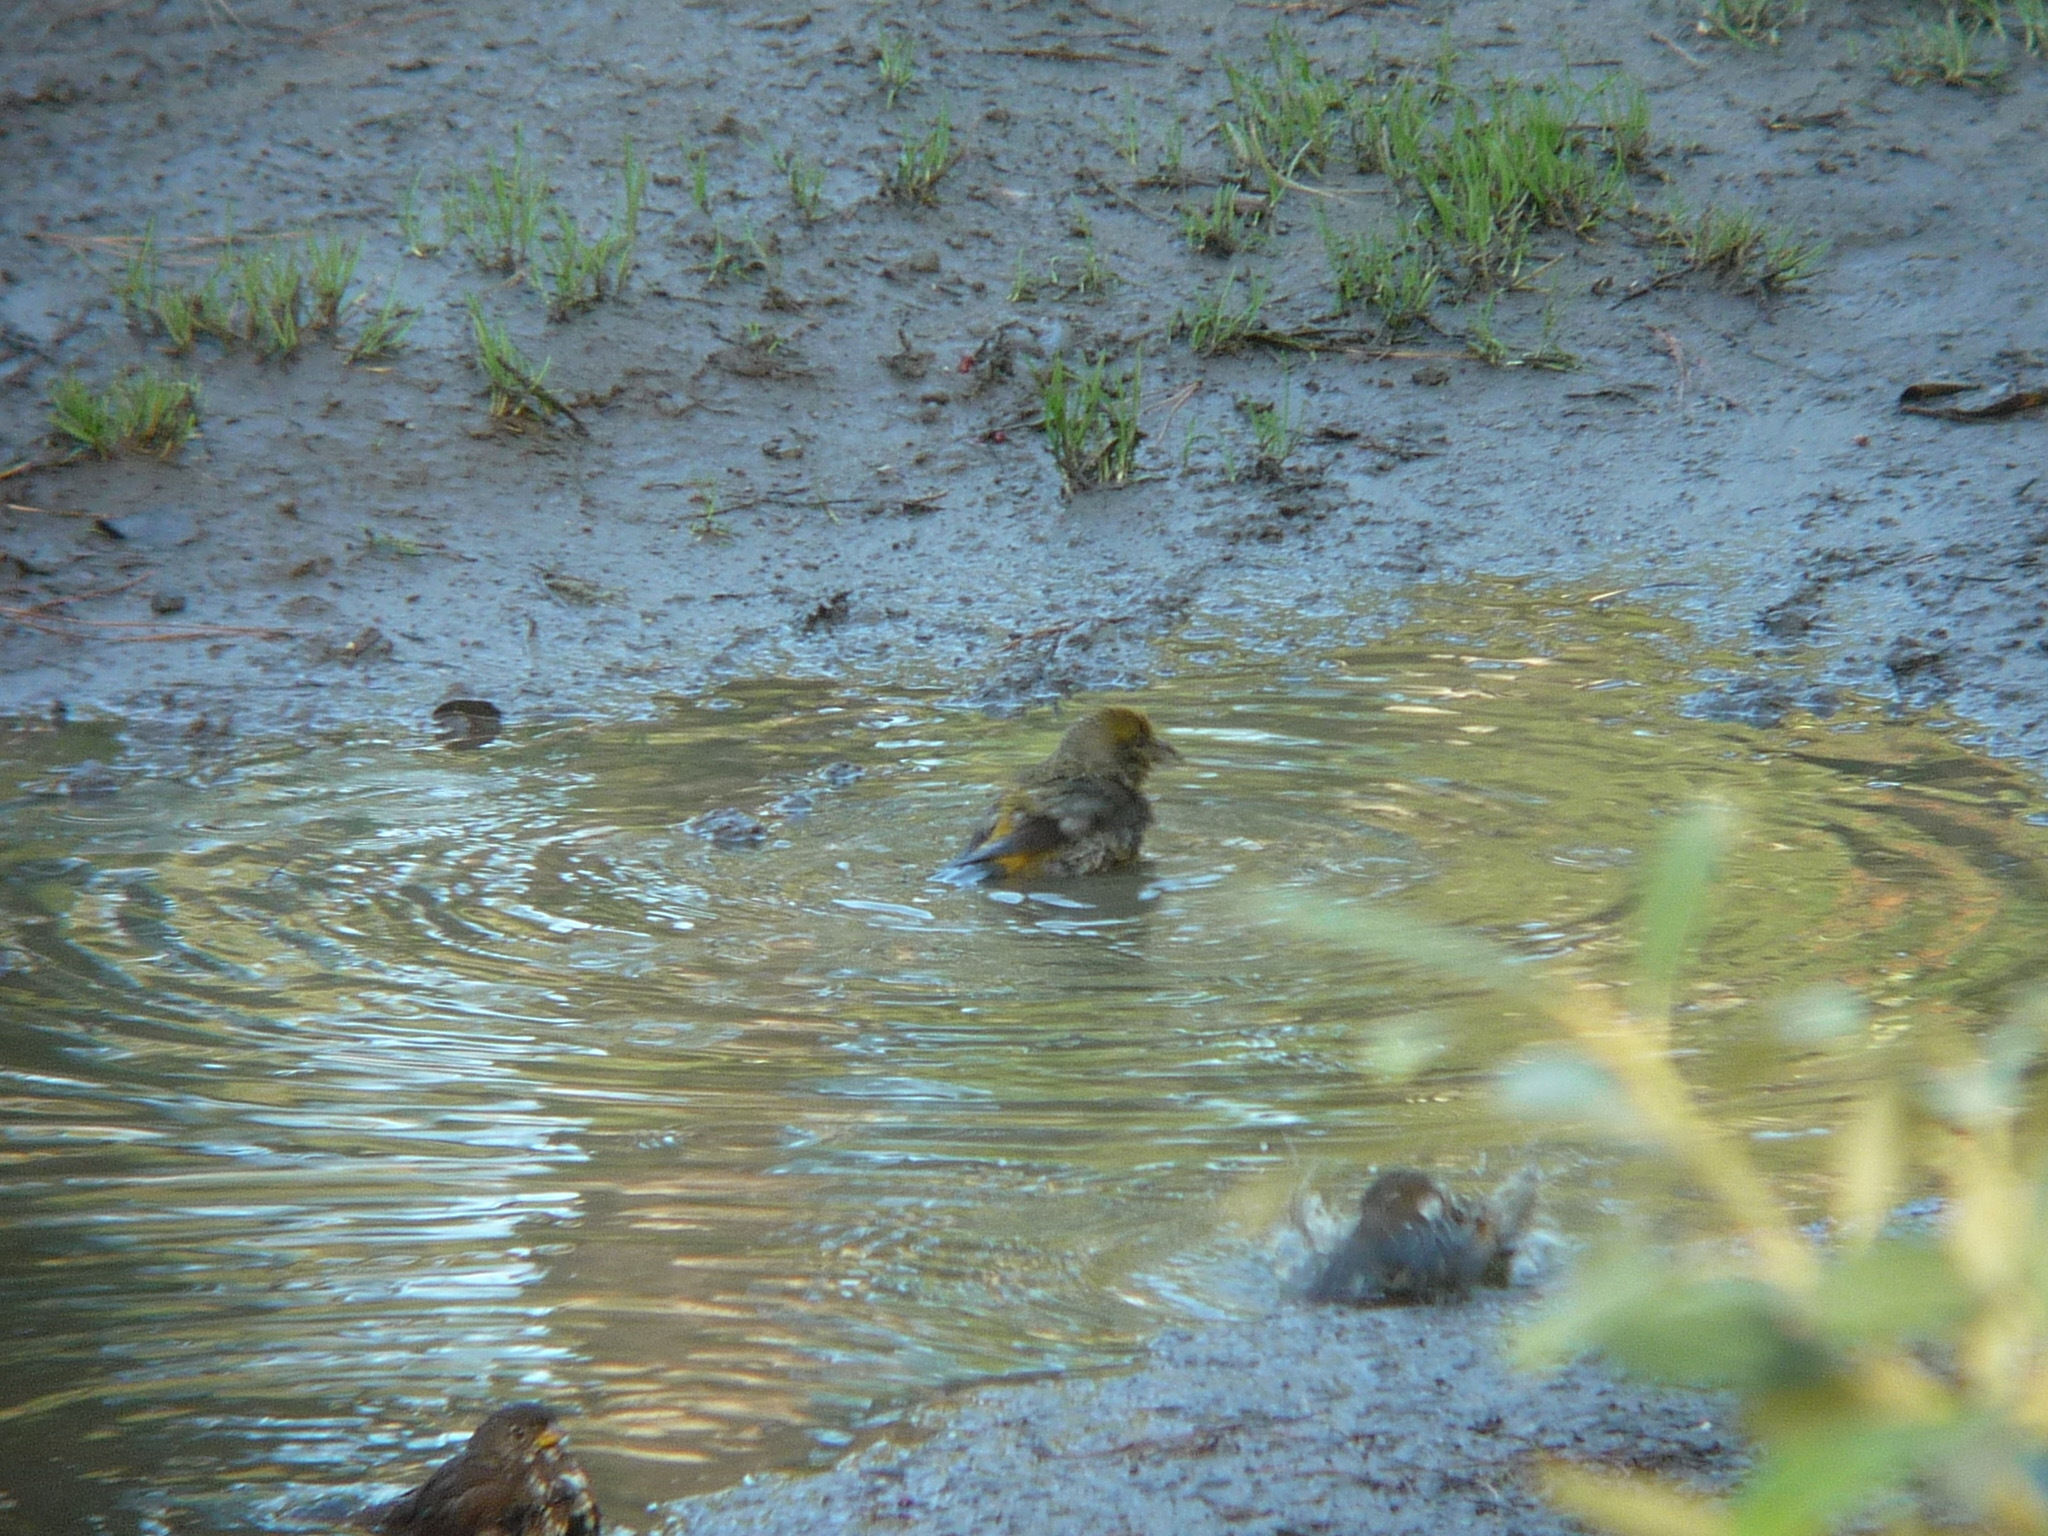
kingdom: Animalia
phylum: Chordata
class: Aves
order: Passeriformes
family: Fringillidae
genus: Loxia
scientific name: Loxia curvirostra
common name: Red crossbill
